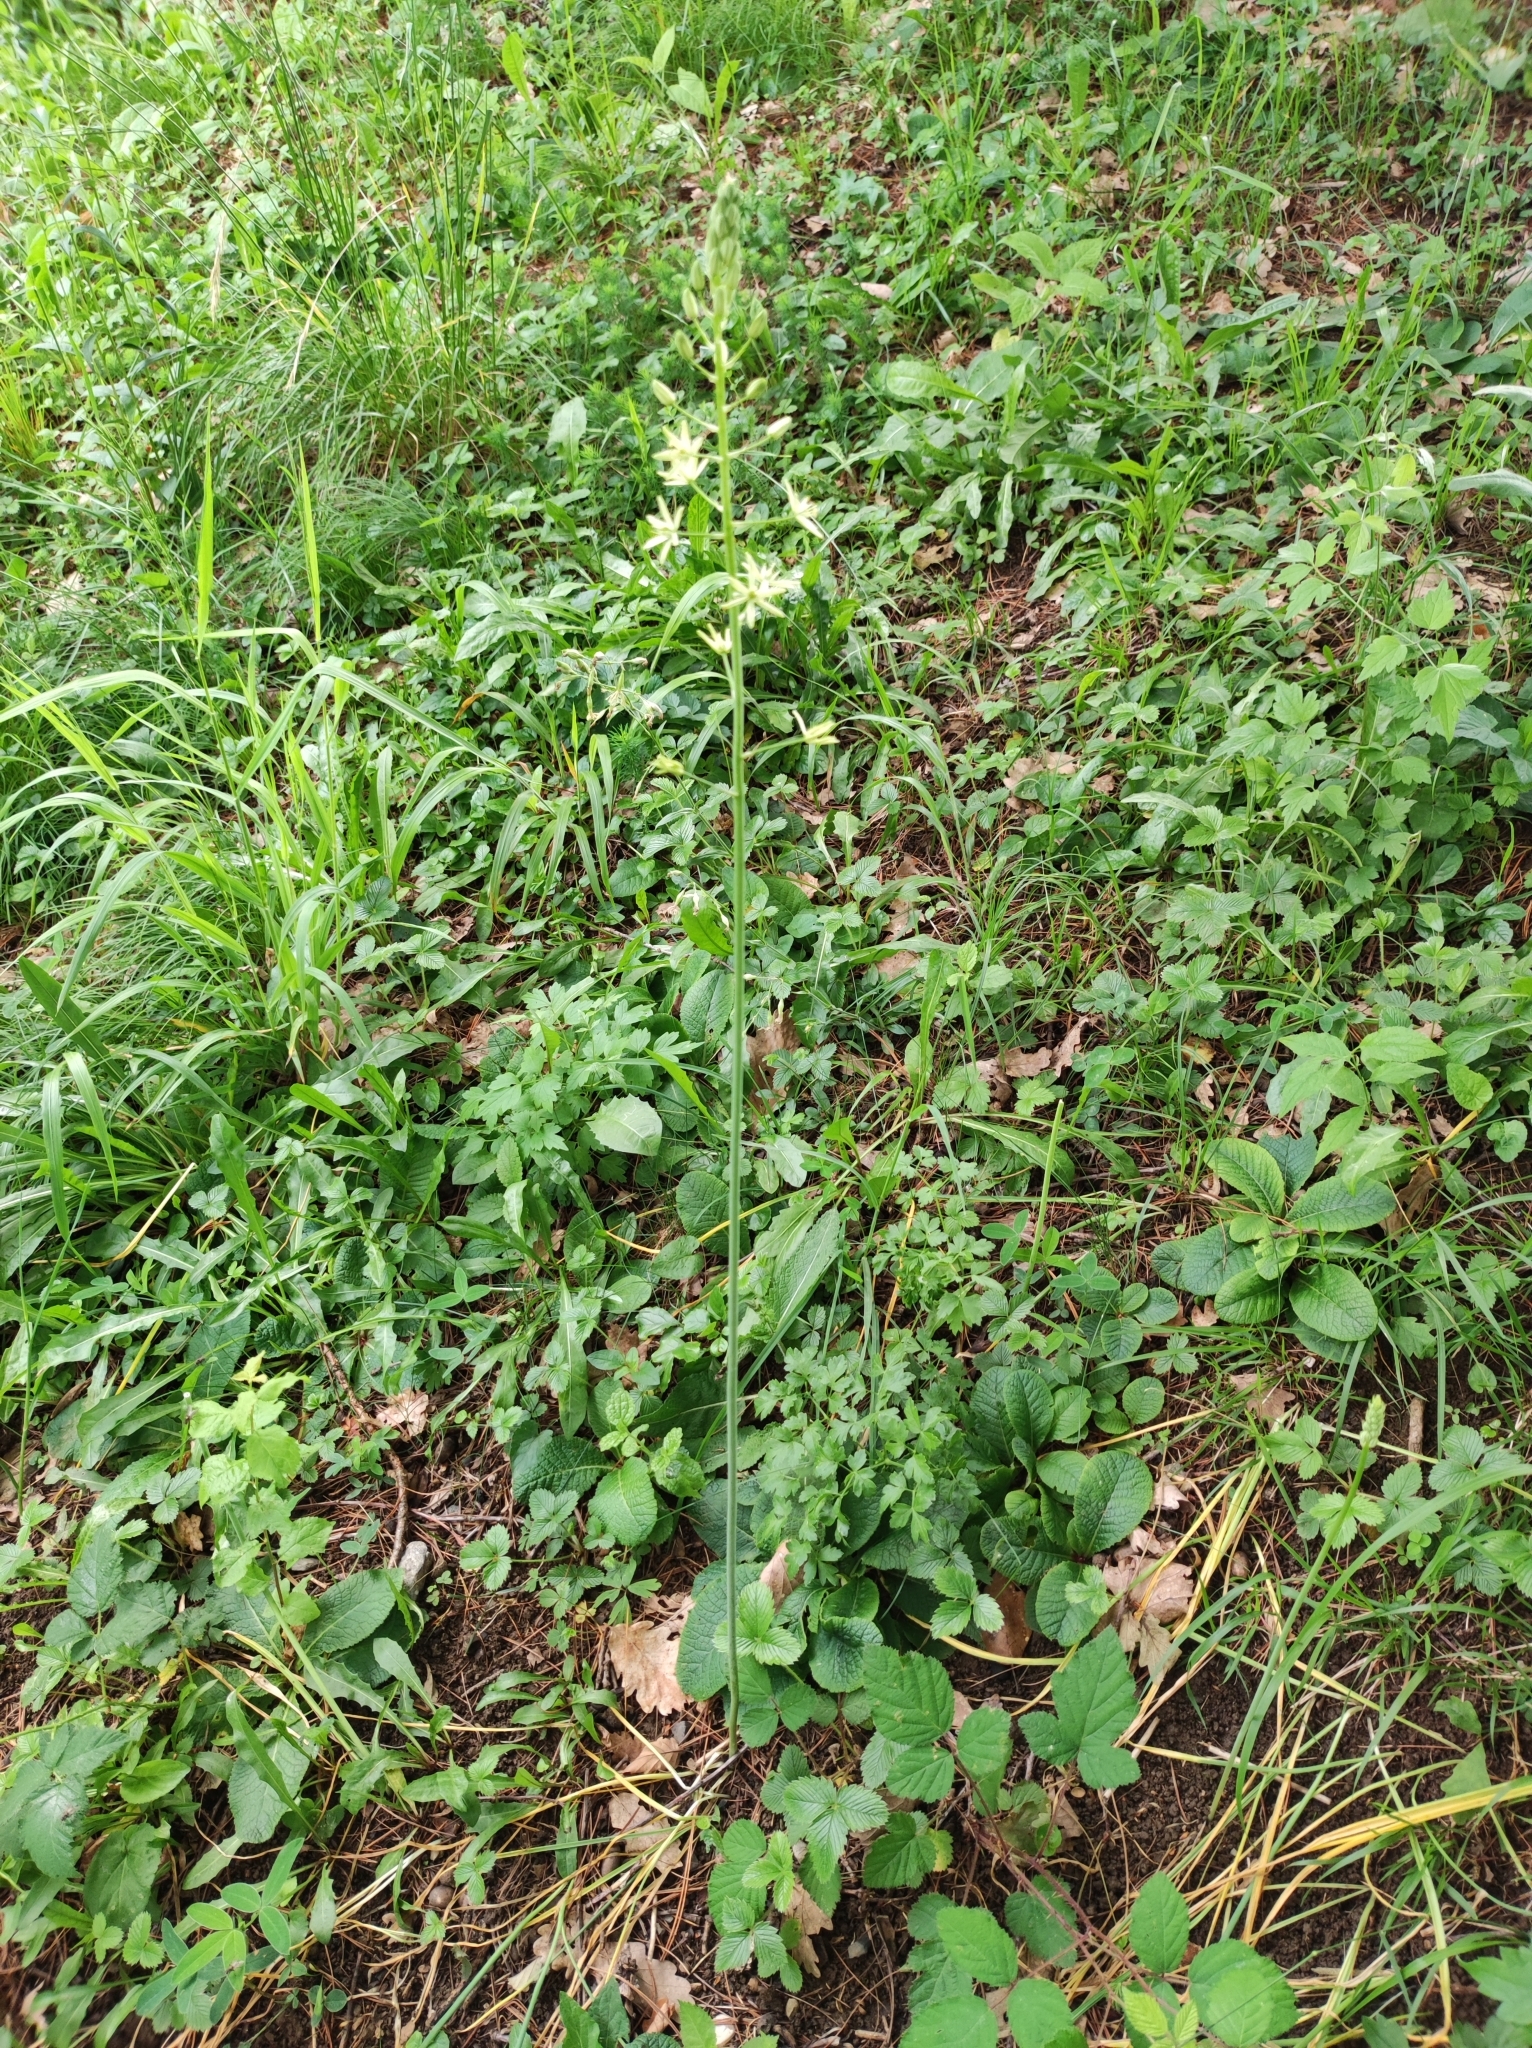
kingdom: Plantae
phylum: Tracheophyta
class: Liliopsida
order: Asparagales
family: Asparagaceae
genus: Ornithogalum
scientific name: Ornithogalum pyrenaicum
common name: Spiked star-of-bethlehem
